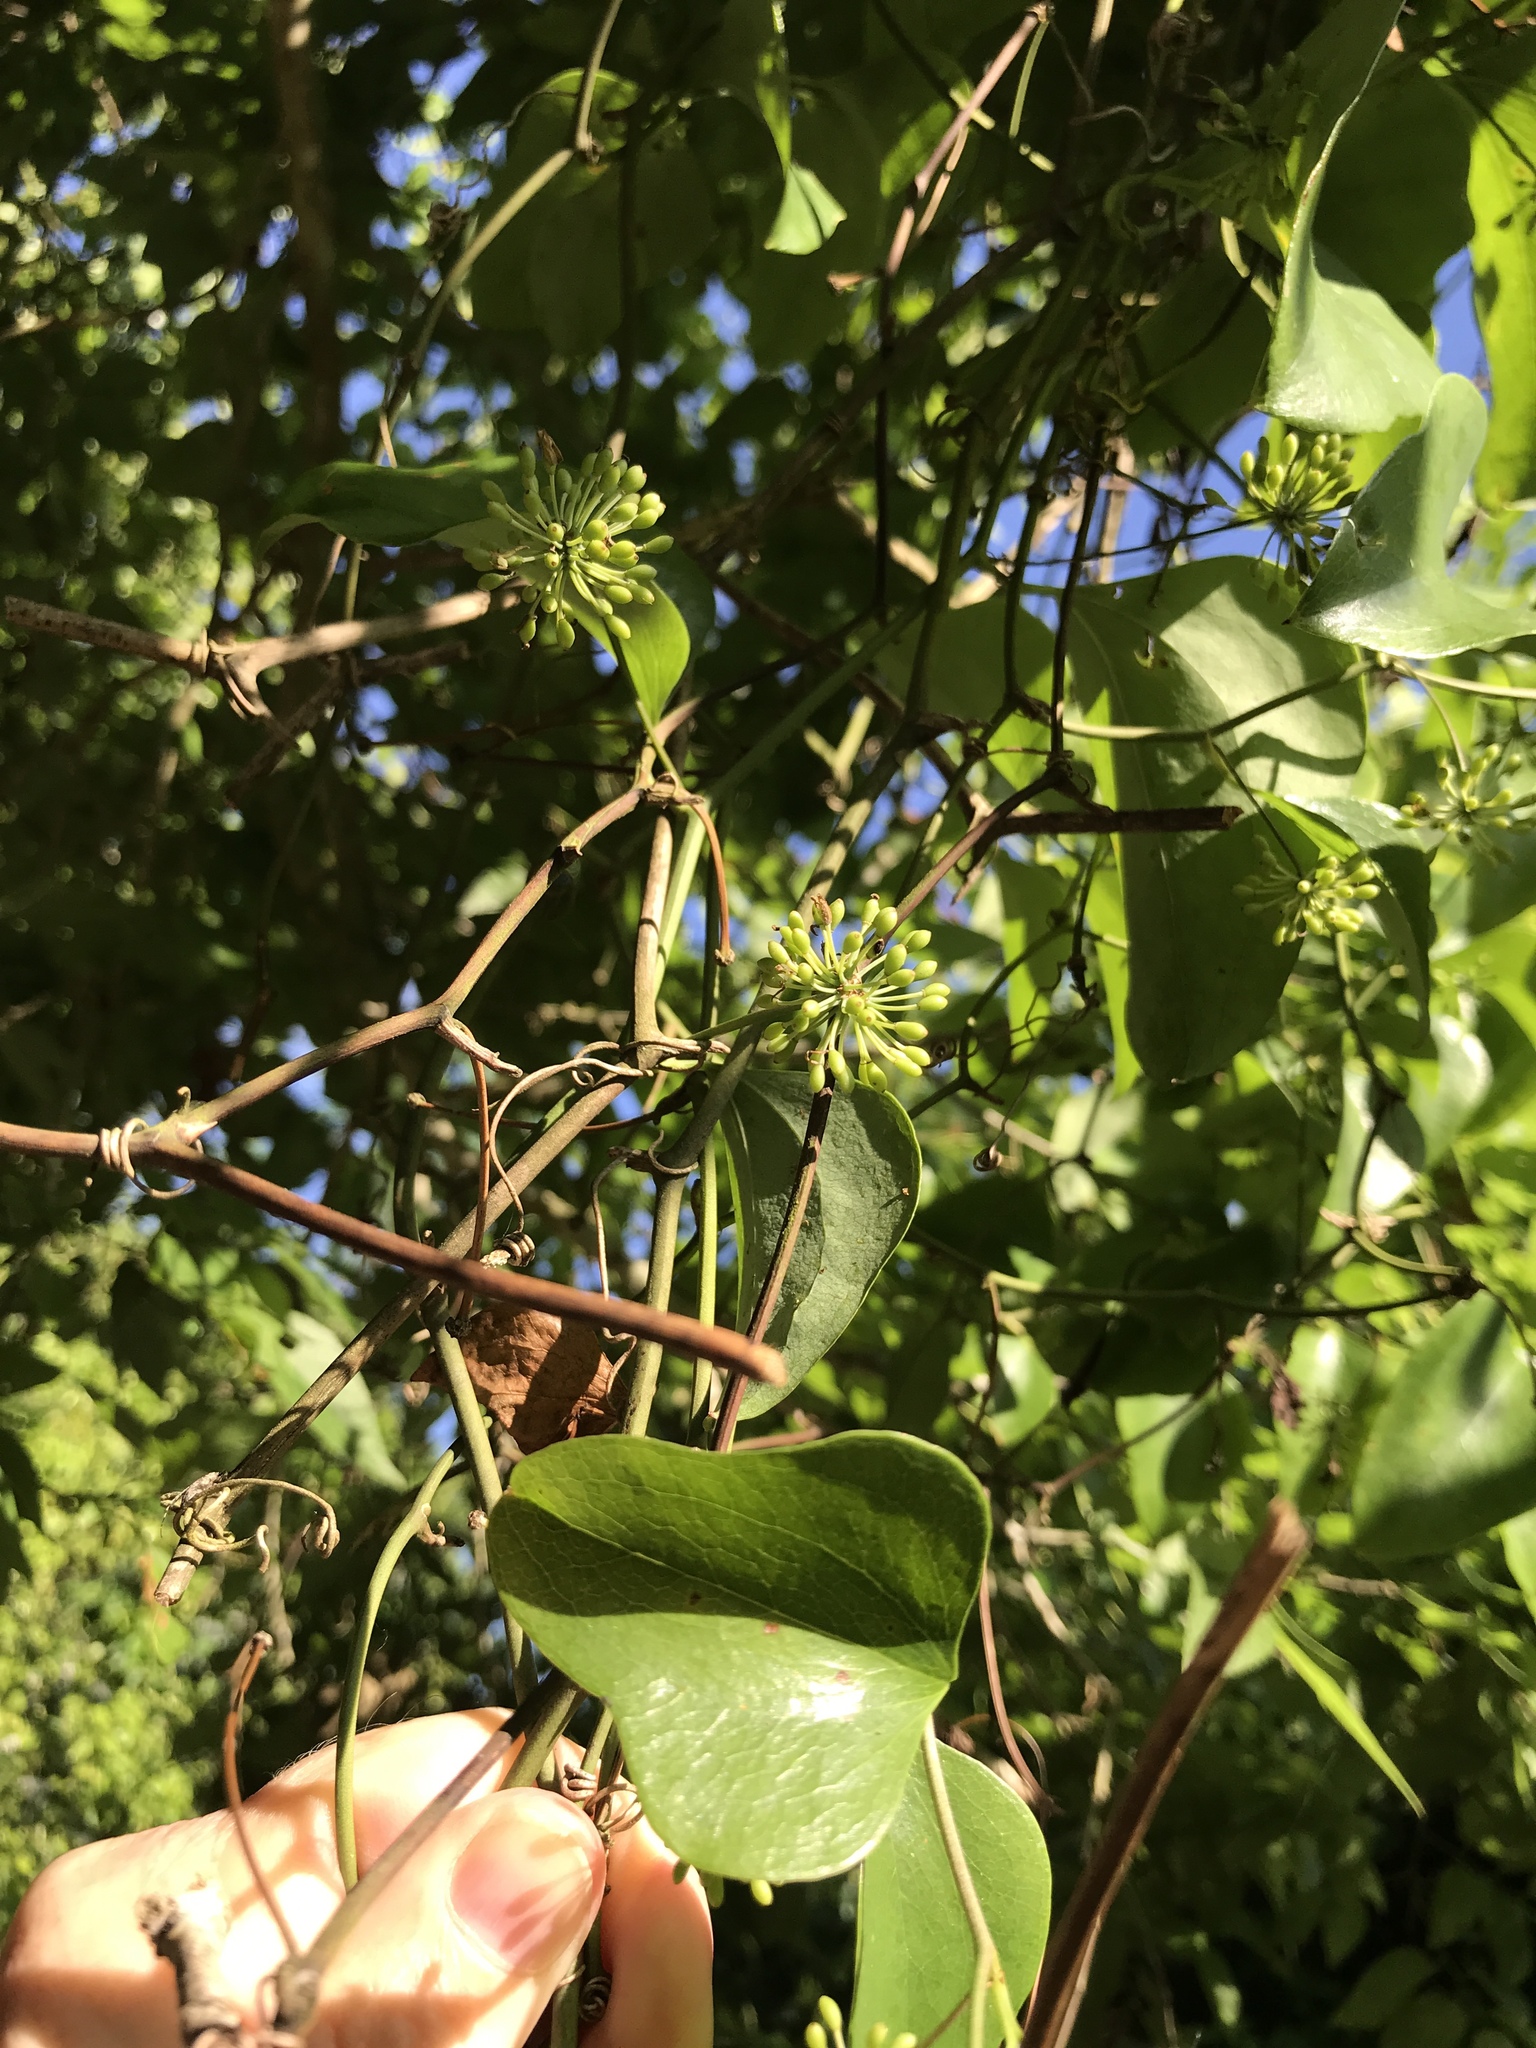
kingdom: Plantae
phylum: Tracheophyta
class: Liliopsida
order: Liliales
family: Smilacaceae
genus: Smilax
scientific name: Smilax bona-nox
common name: Catbrier
